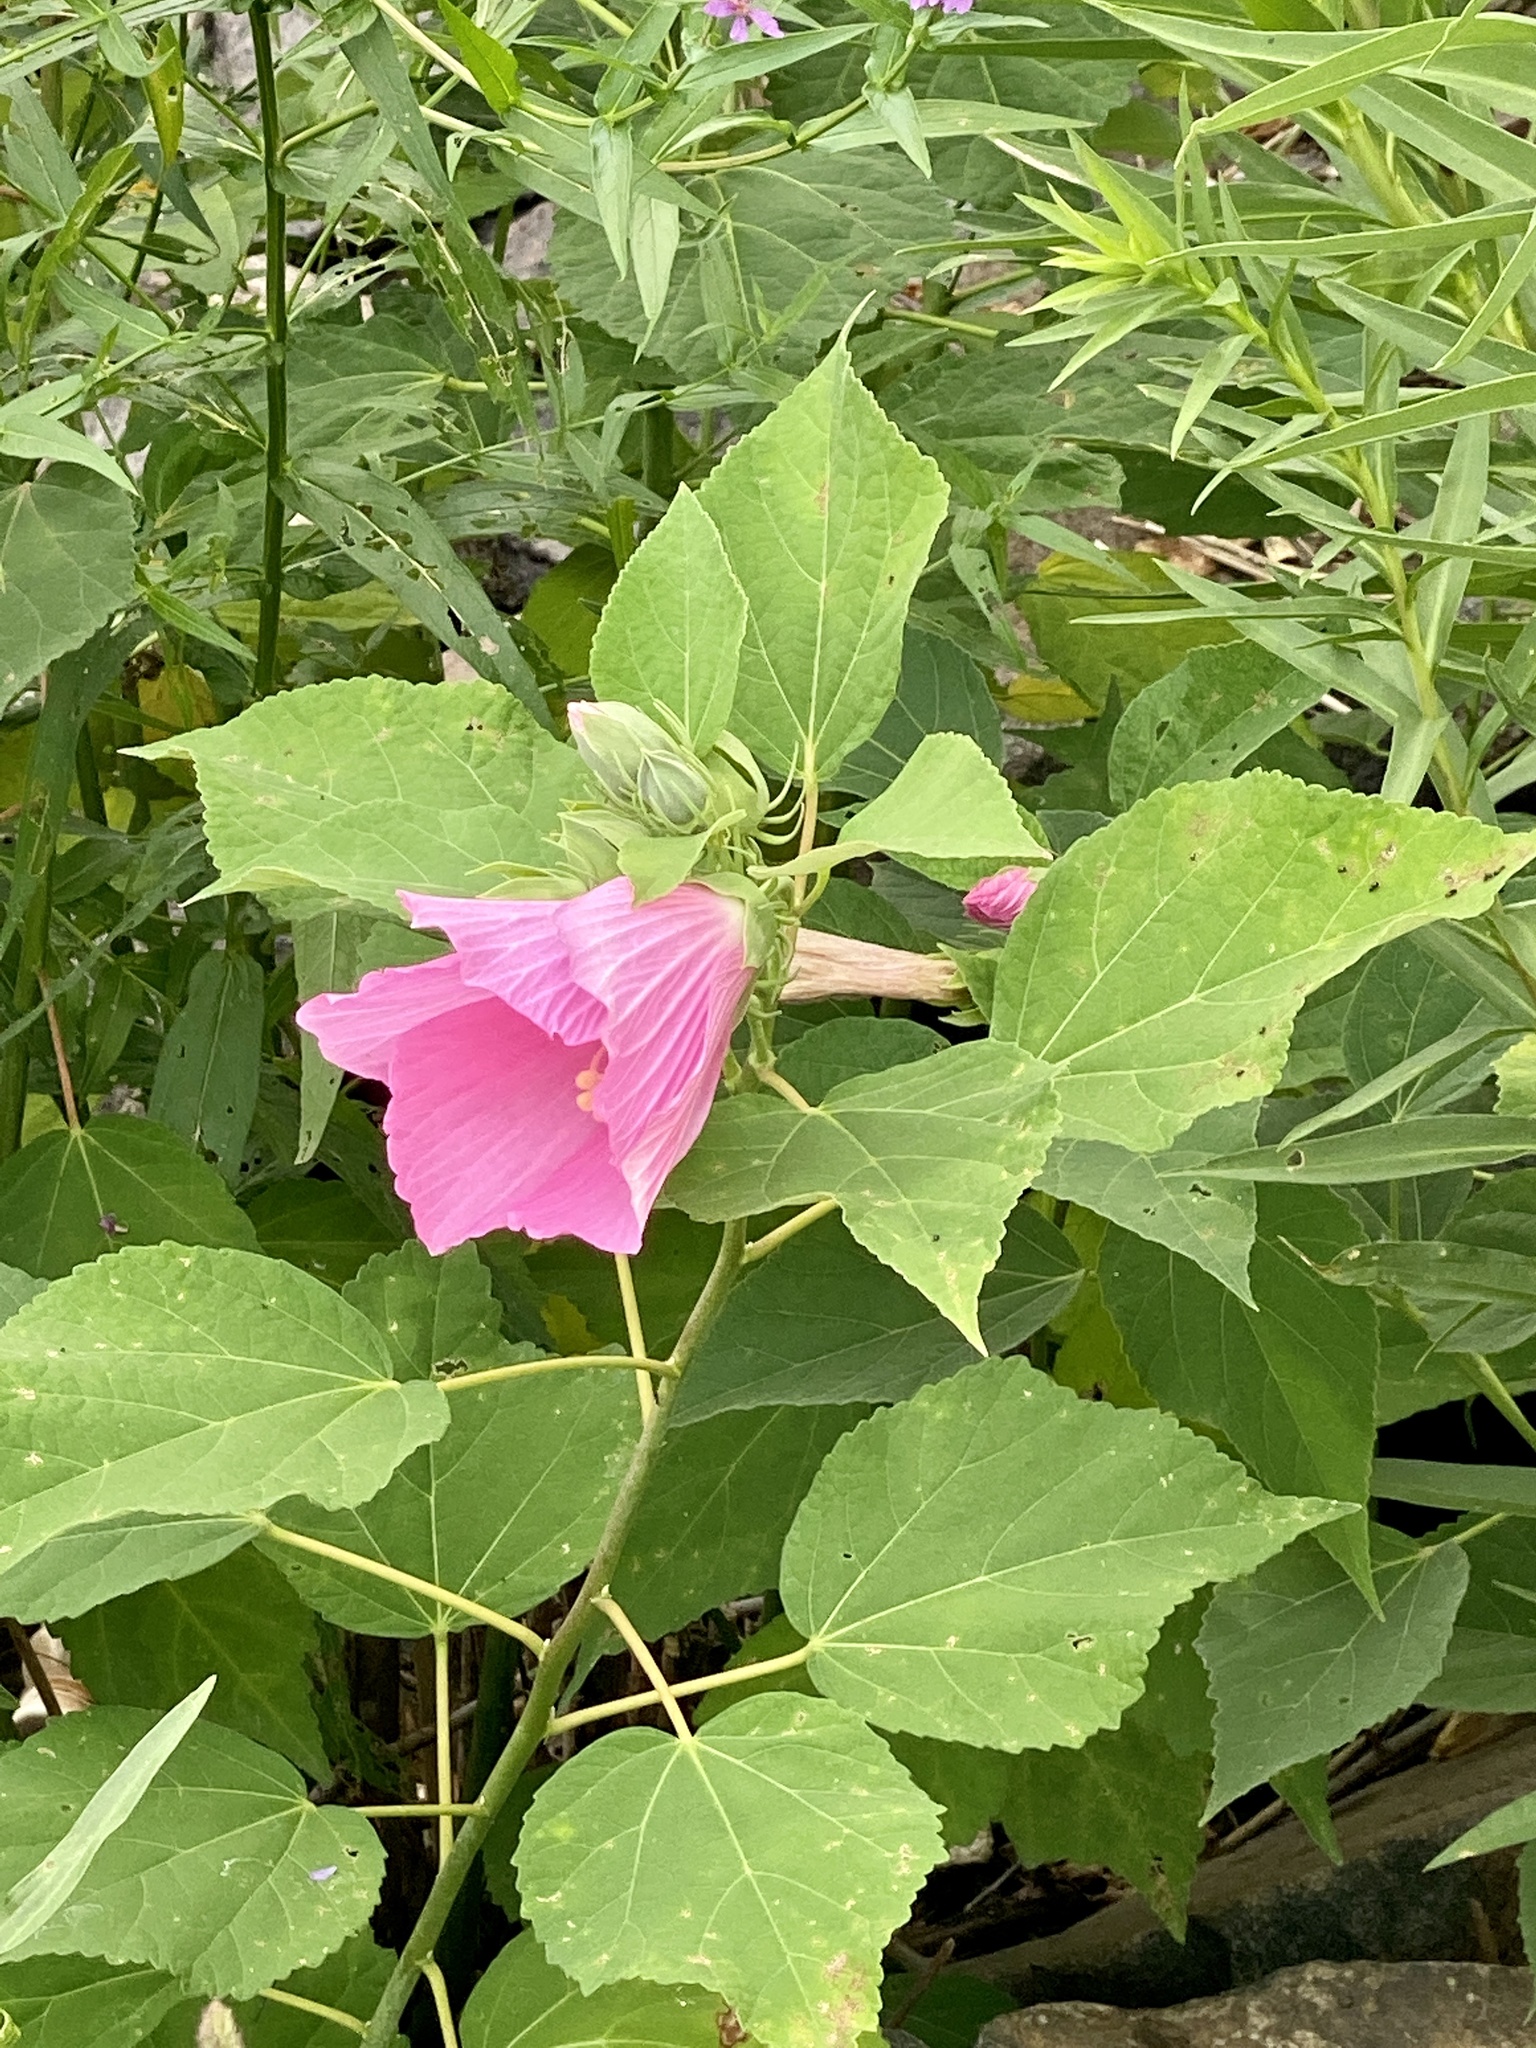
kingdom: Plantae
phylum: Tracheophyta
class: Magnoliopsida
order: Malvales
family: Malvaceae
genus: Hibiscus
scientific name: Hibiscus moscheutos
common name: Common rose-mallow
